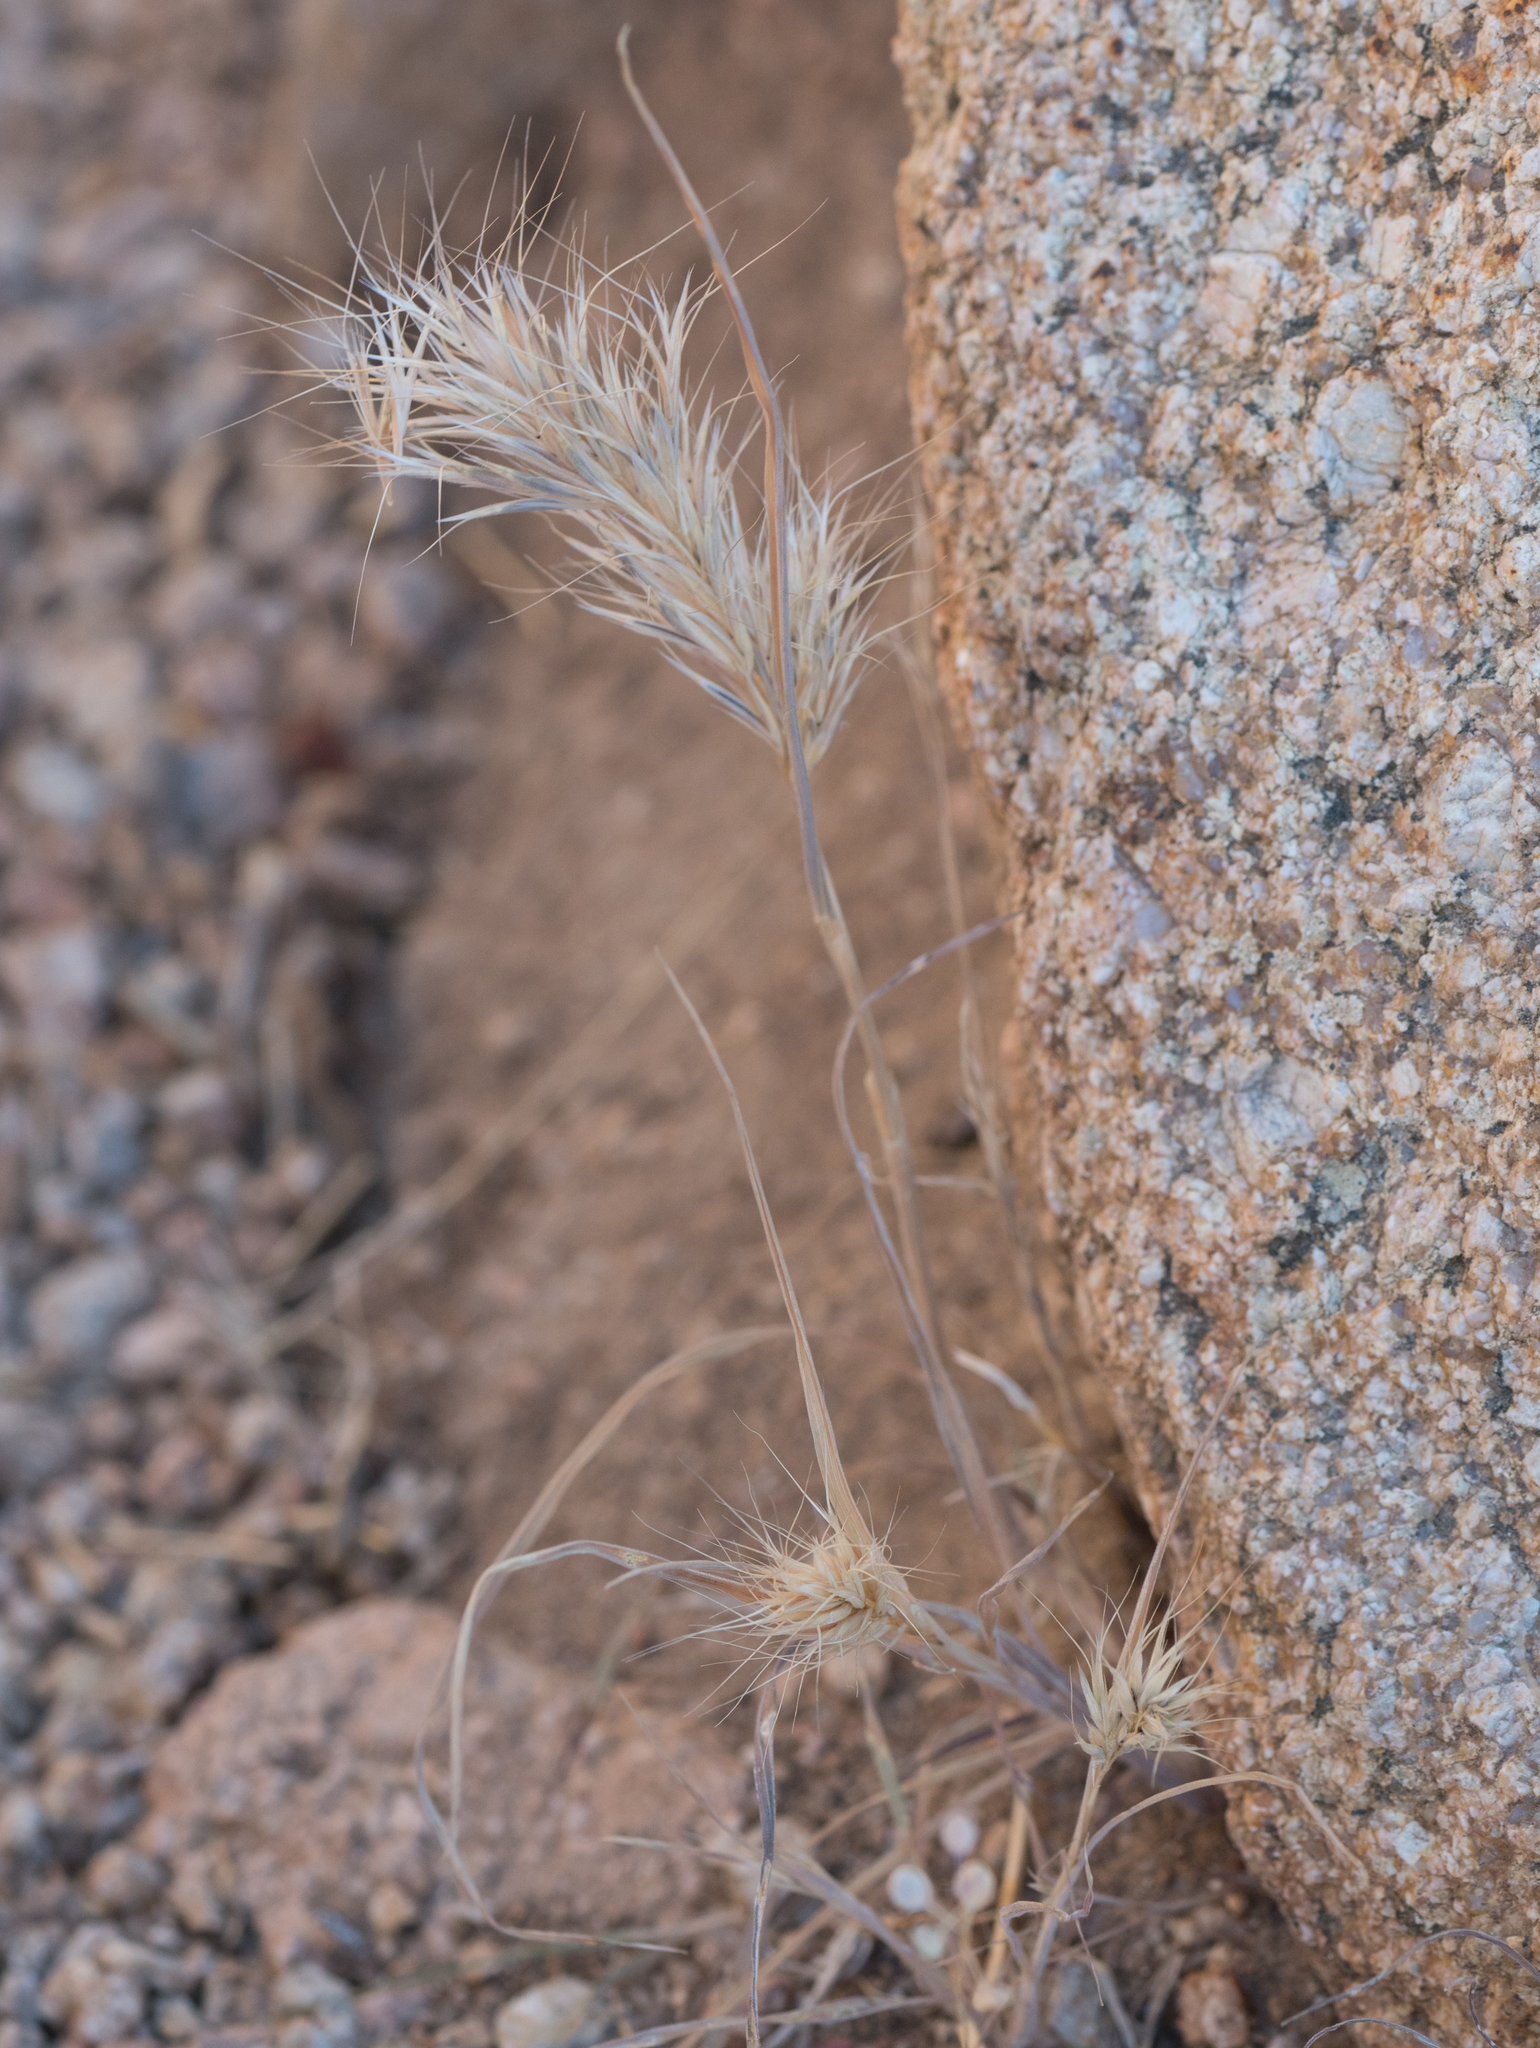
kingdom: Plantae
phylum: Tracheophyta
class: Liliopsida
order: Poales
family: Poaceae
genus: Bromus
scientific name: Bromus rubens
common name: Red brome
